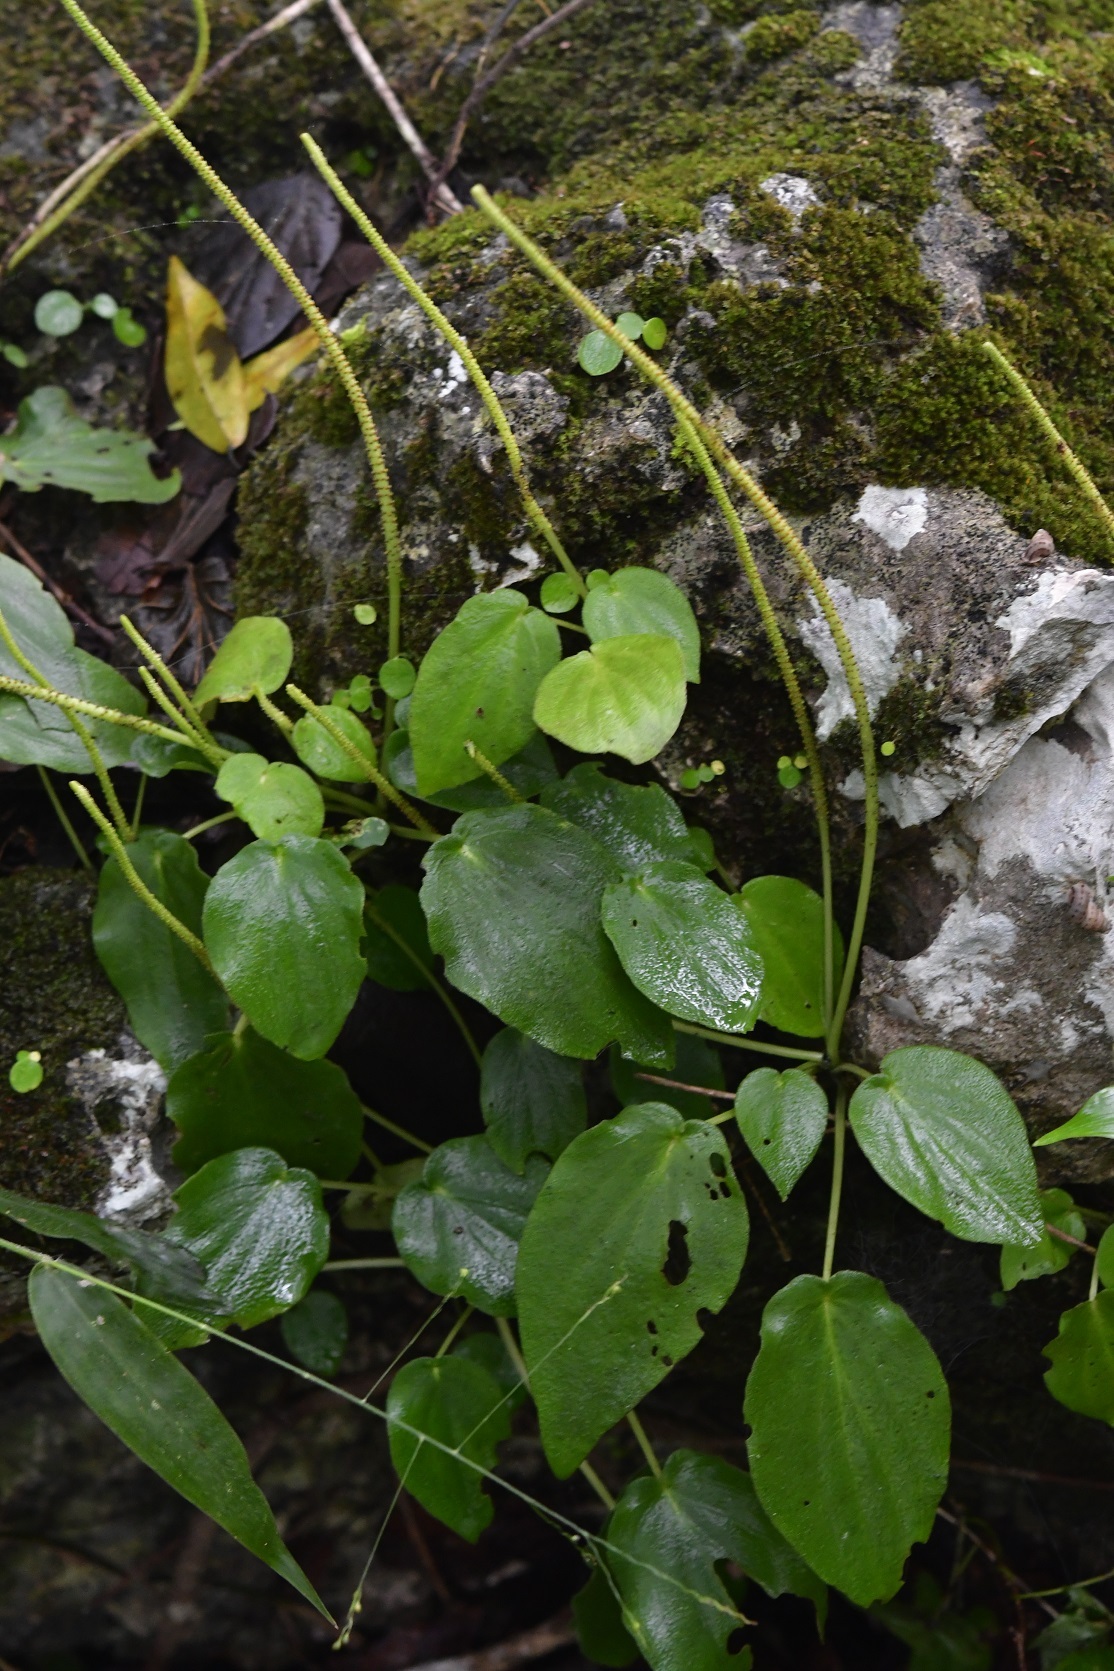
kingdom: Plantae
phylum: Tracheophyta
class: Magnoliopsida
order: Piperales
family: Piperaceae
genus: Peperomia
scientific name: Peperomia lanceolatopeltata
